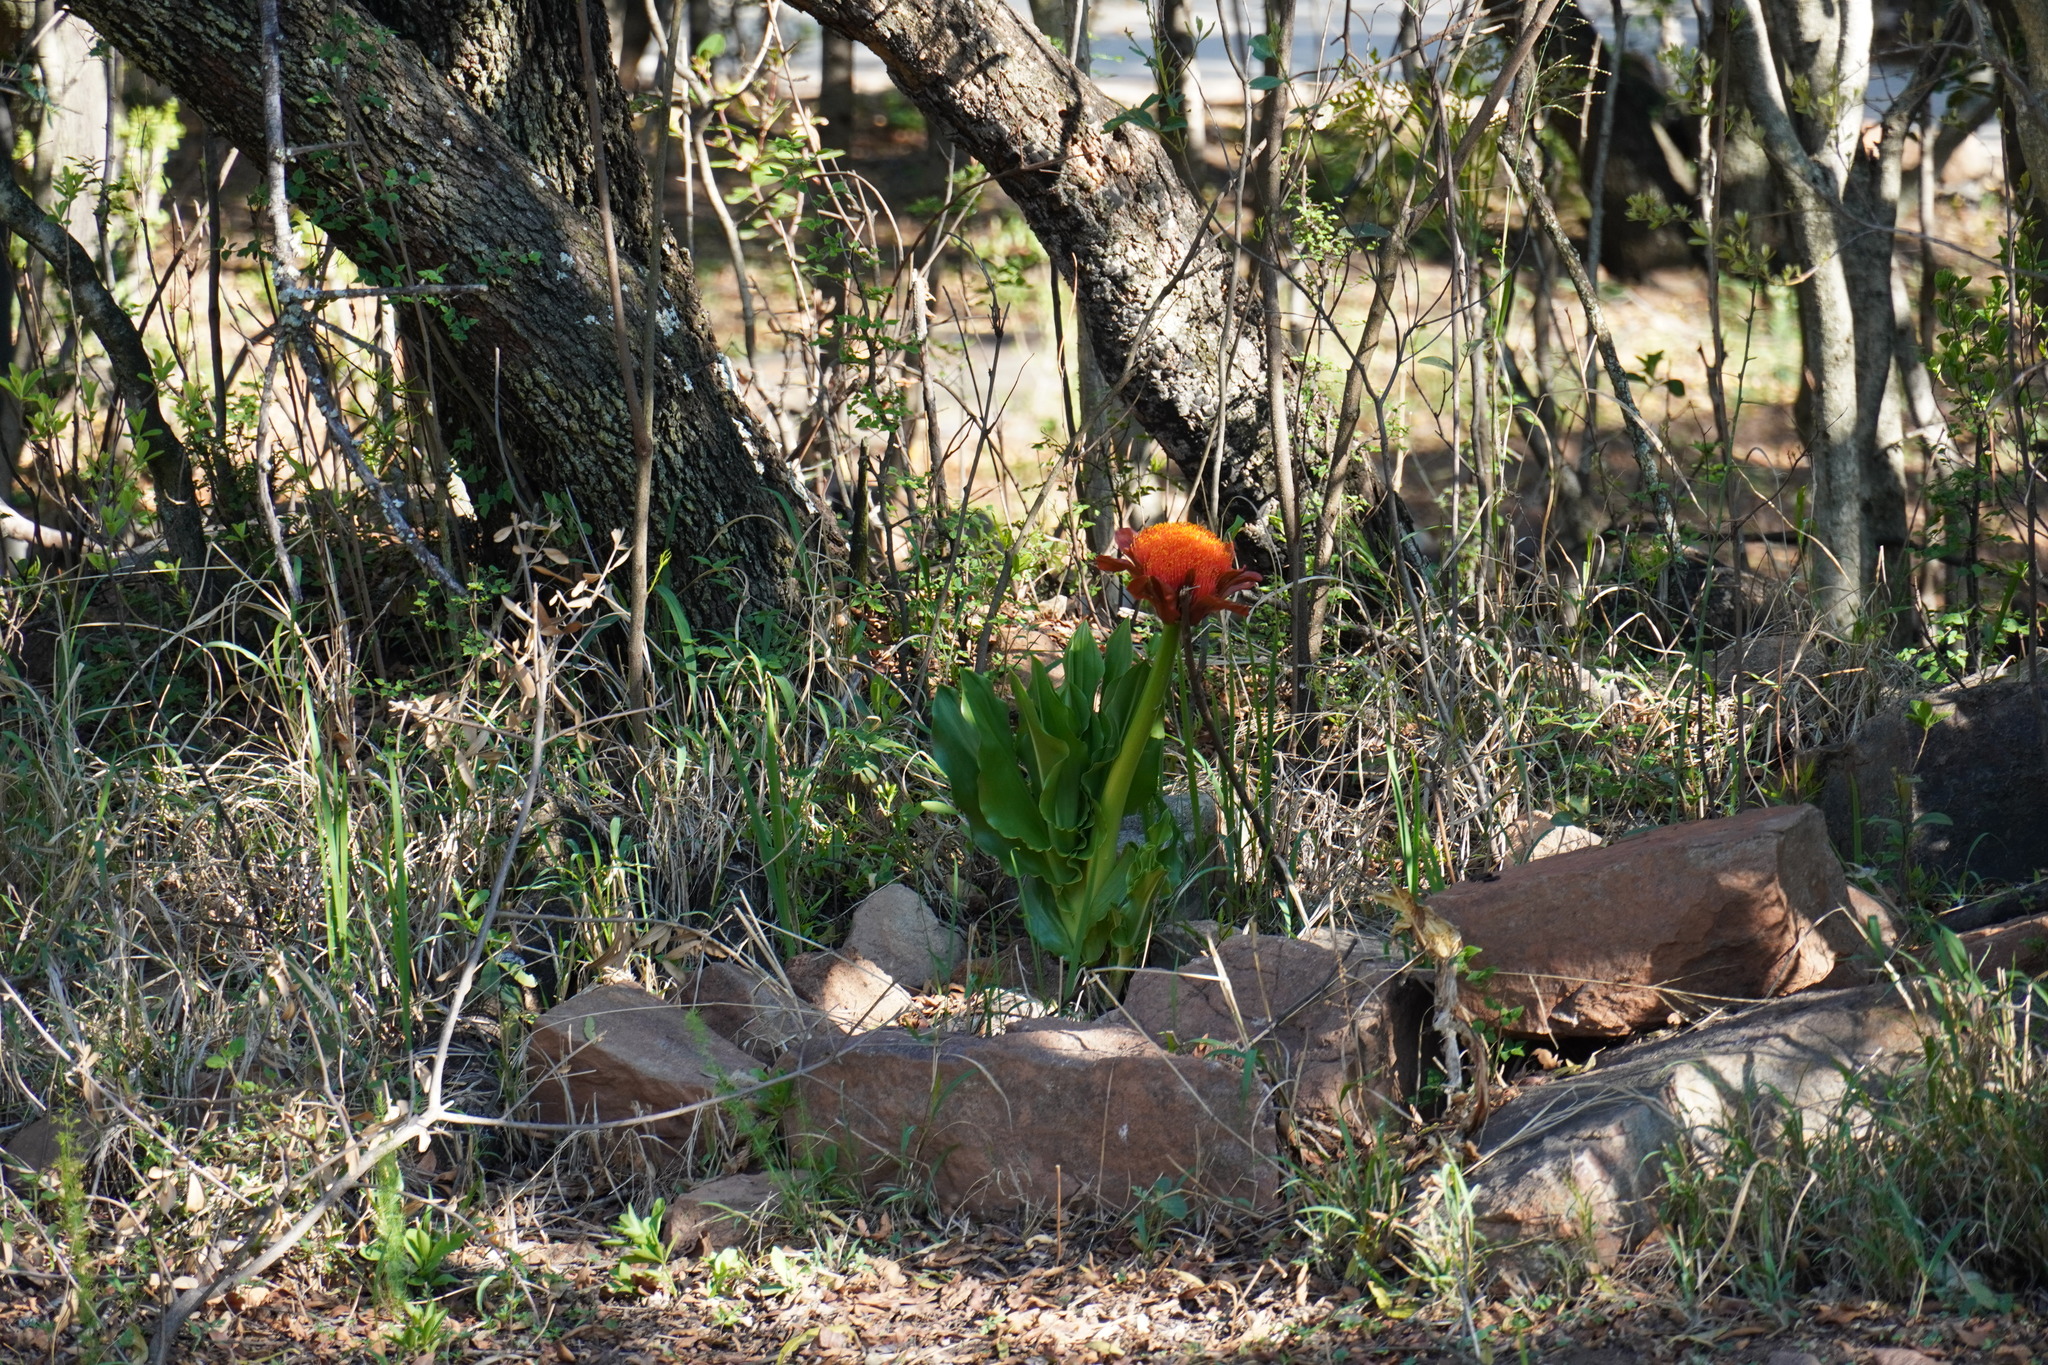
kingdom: Plantae
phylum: Tracheophyta
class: Liliopsida
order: Asparagales
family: Amaryllidaceae
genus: Scadoxus
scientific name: Scadoxus puniceus
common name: Royal-paintbrush
